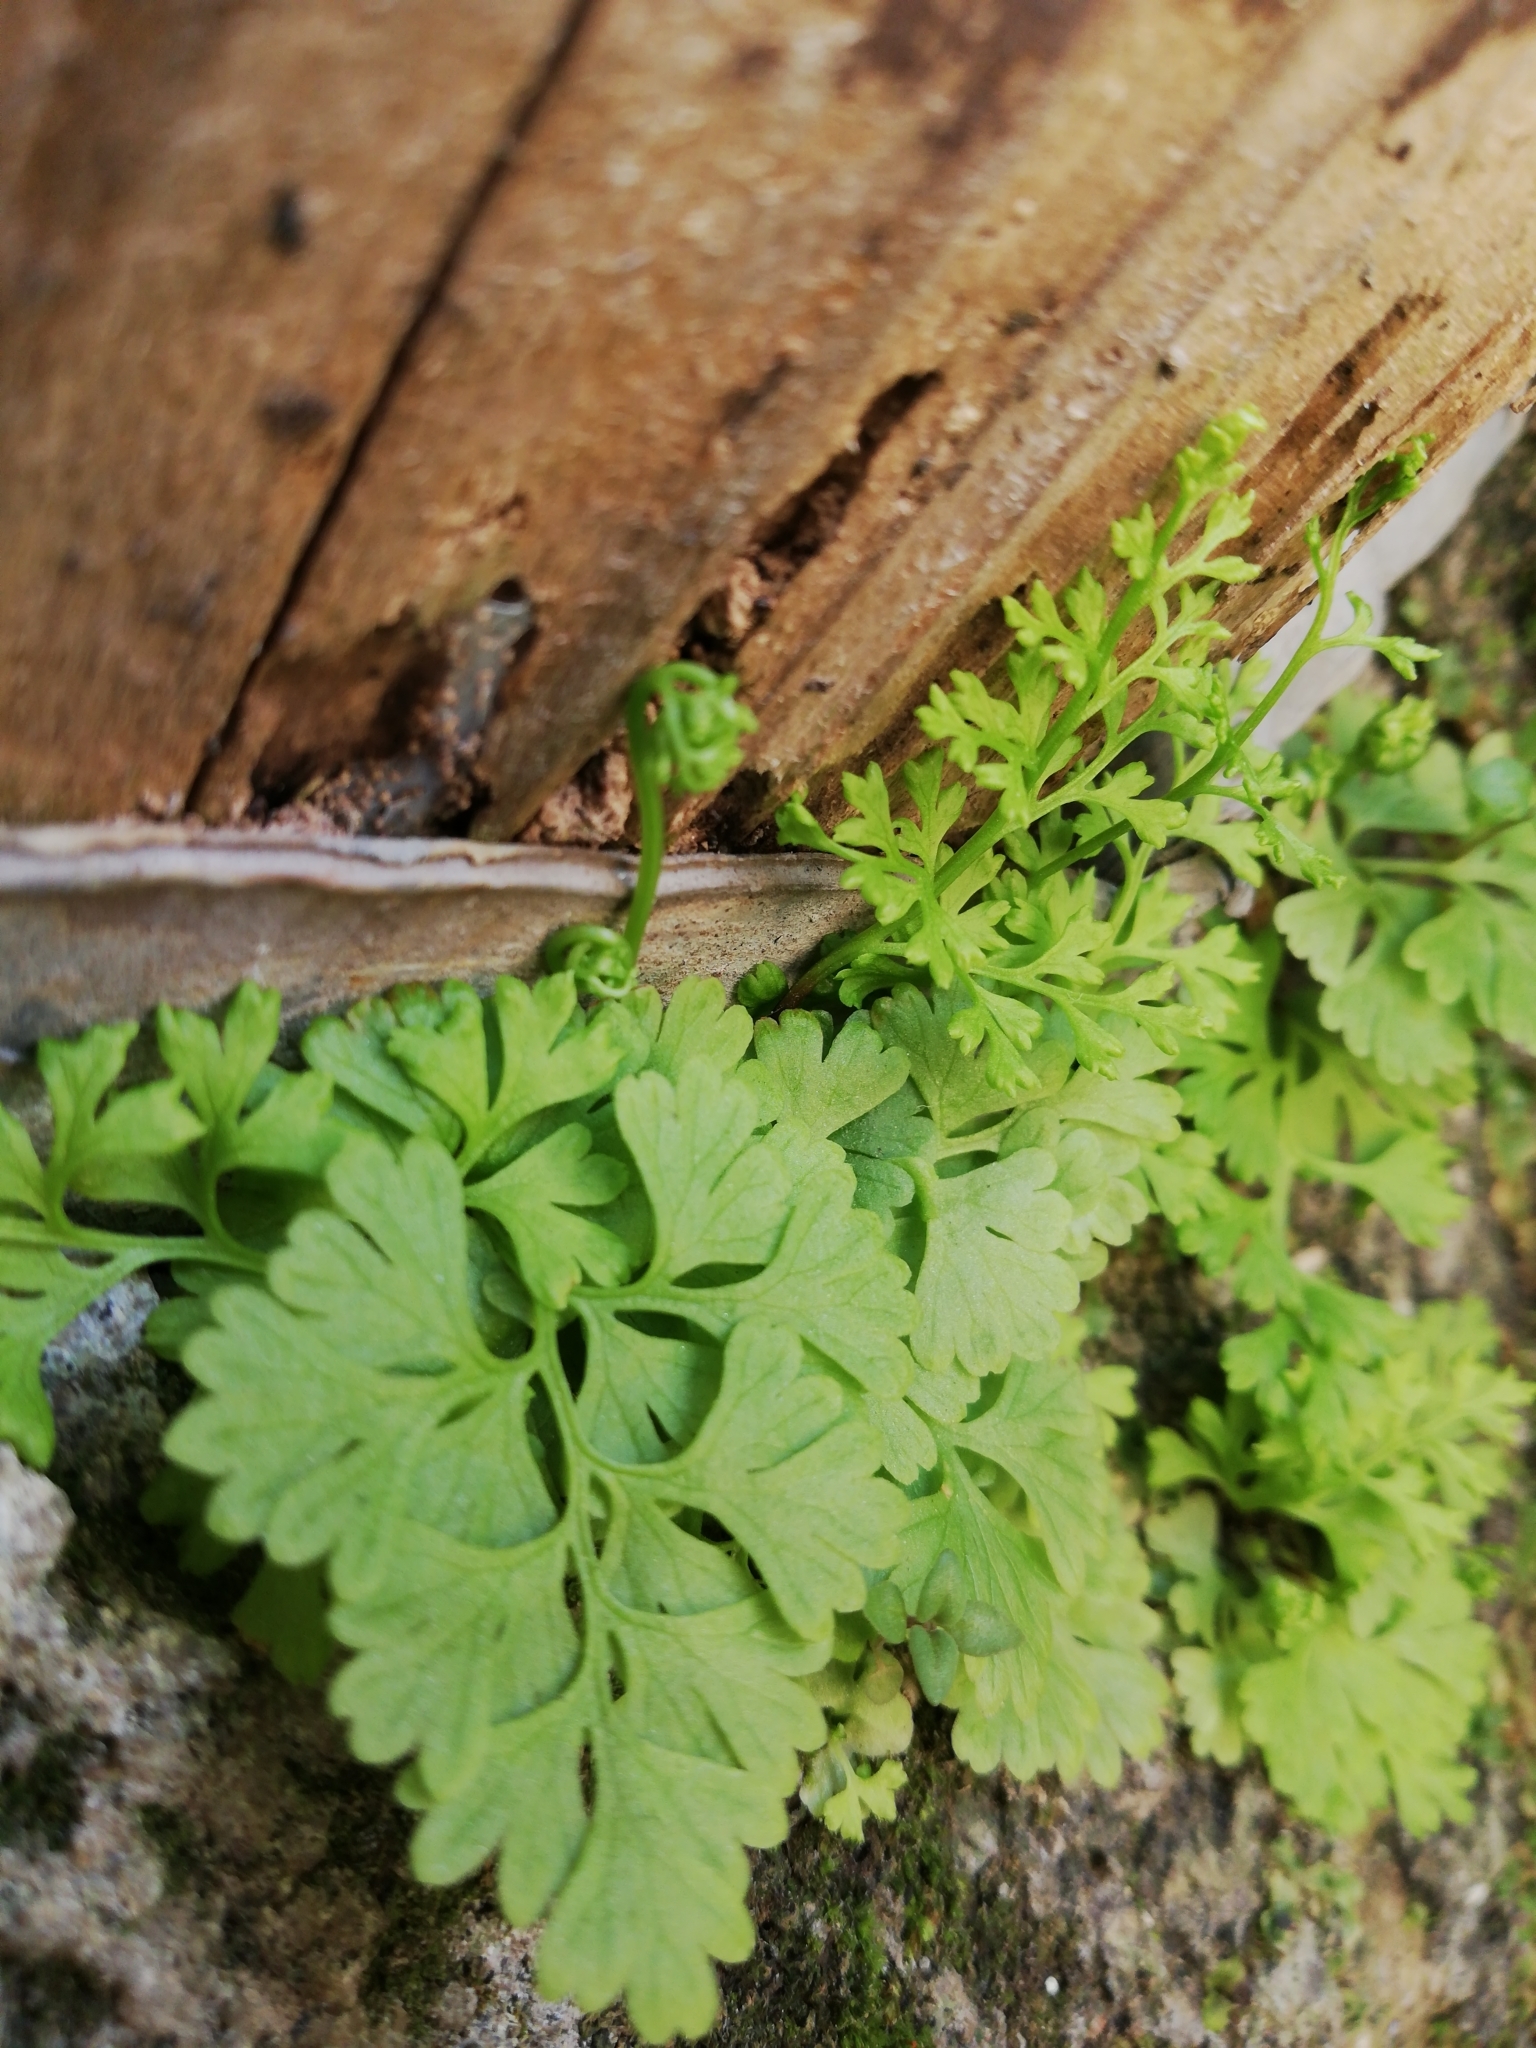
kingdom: Plantae
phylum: Tracheophyta
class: Polypodiopsida
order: Polypodiales
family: Pteridaceae
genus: Anogramma
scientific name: Anogramma leptophylla
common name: Jersey fern
